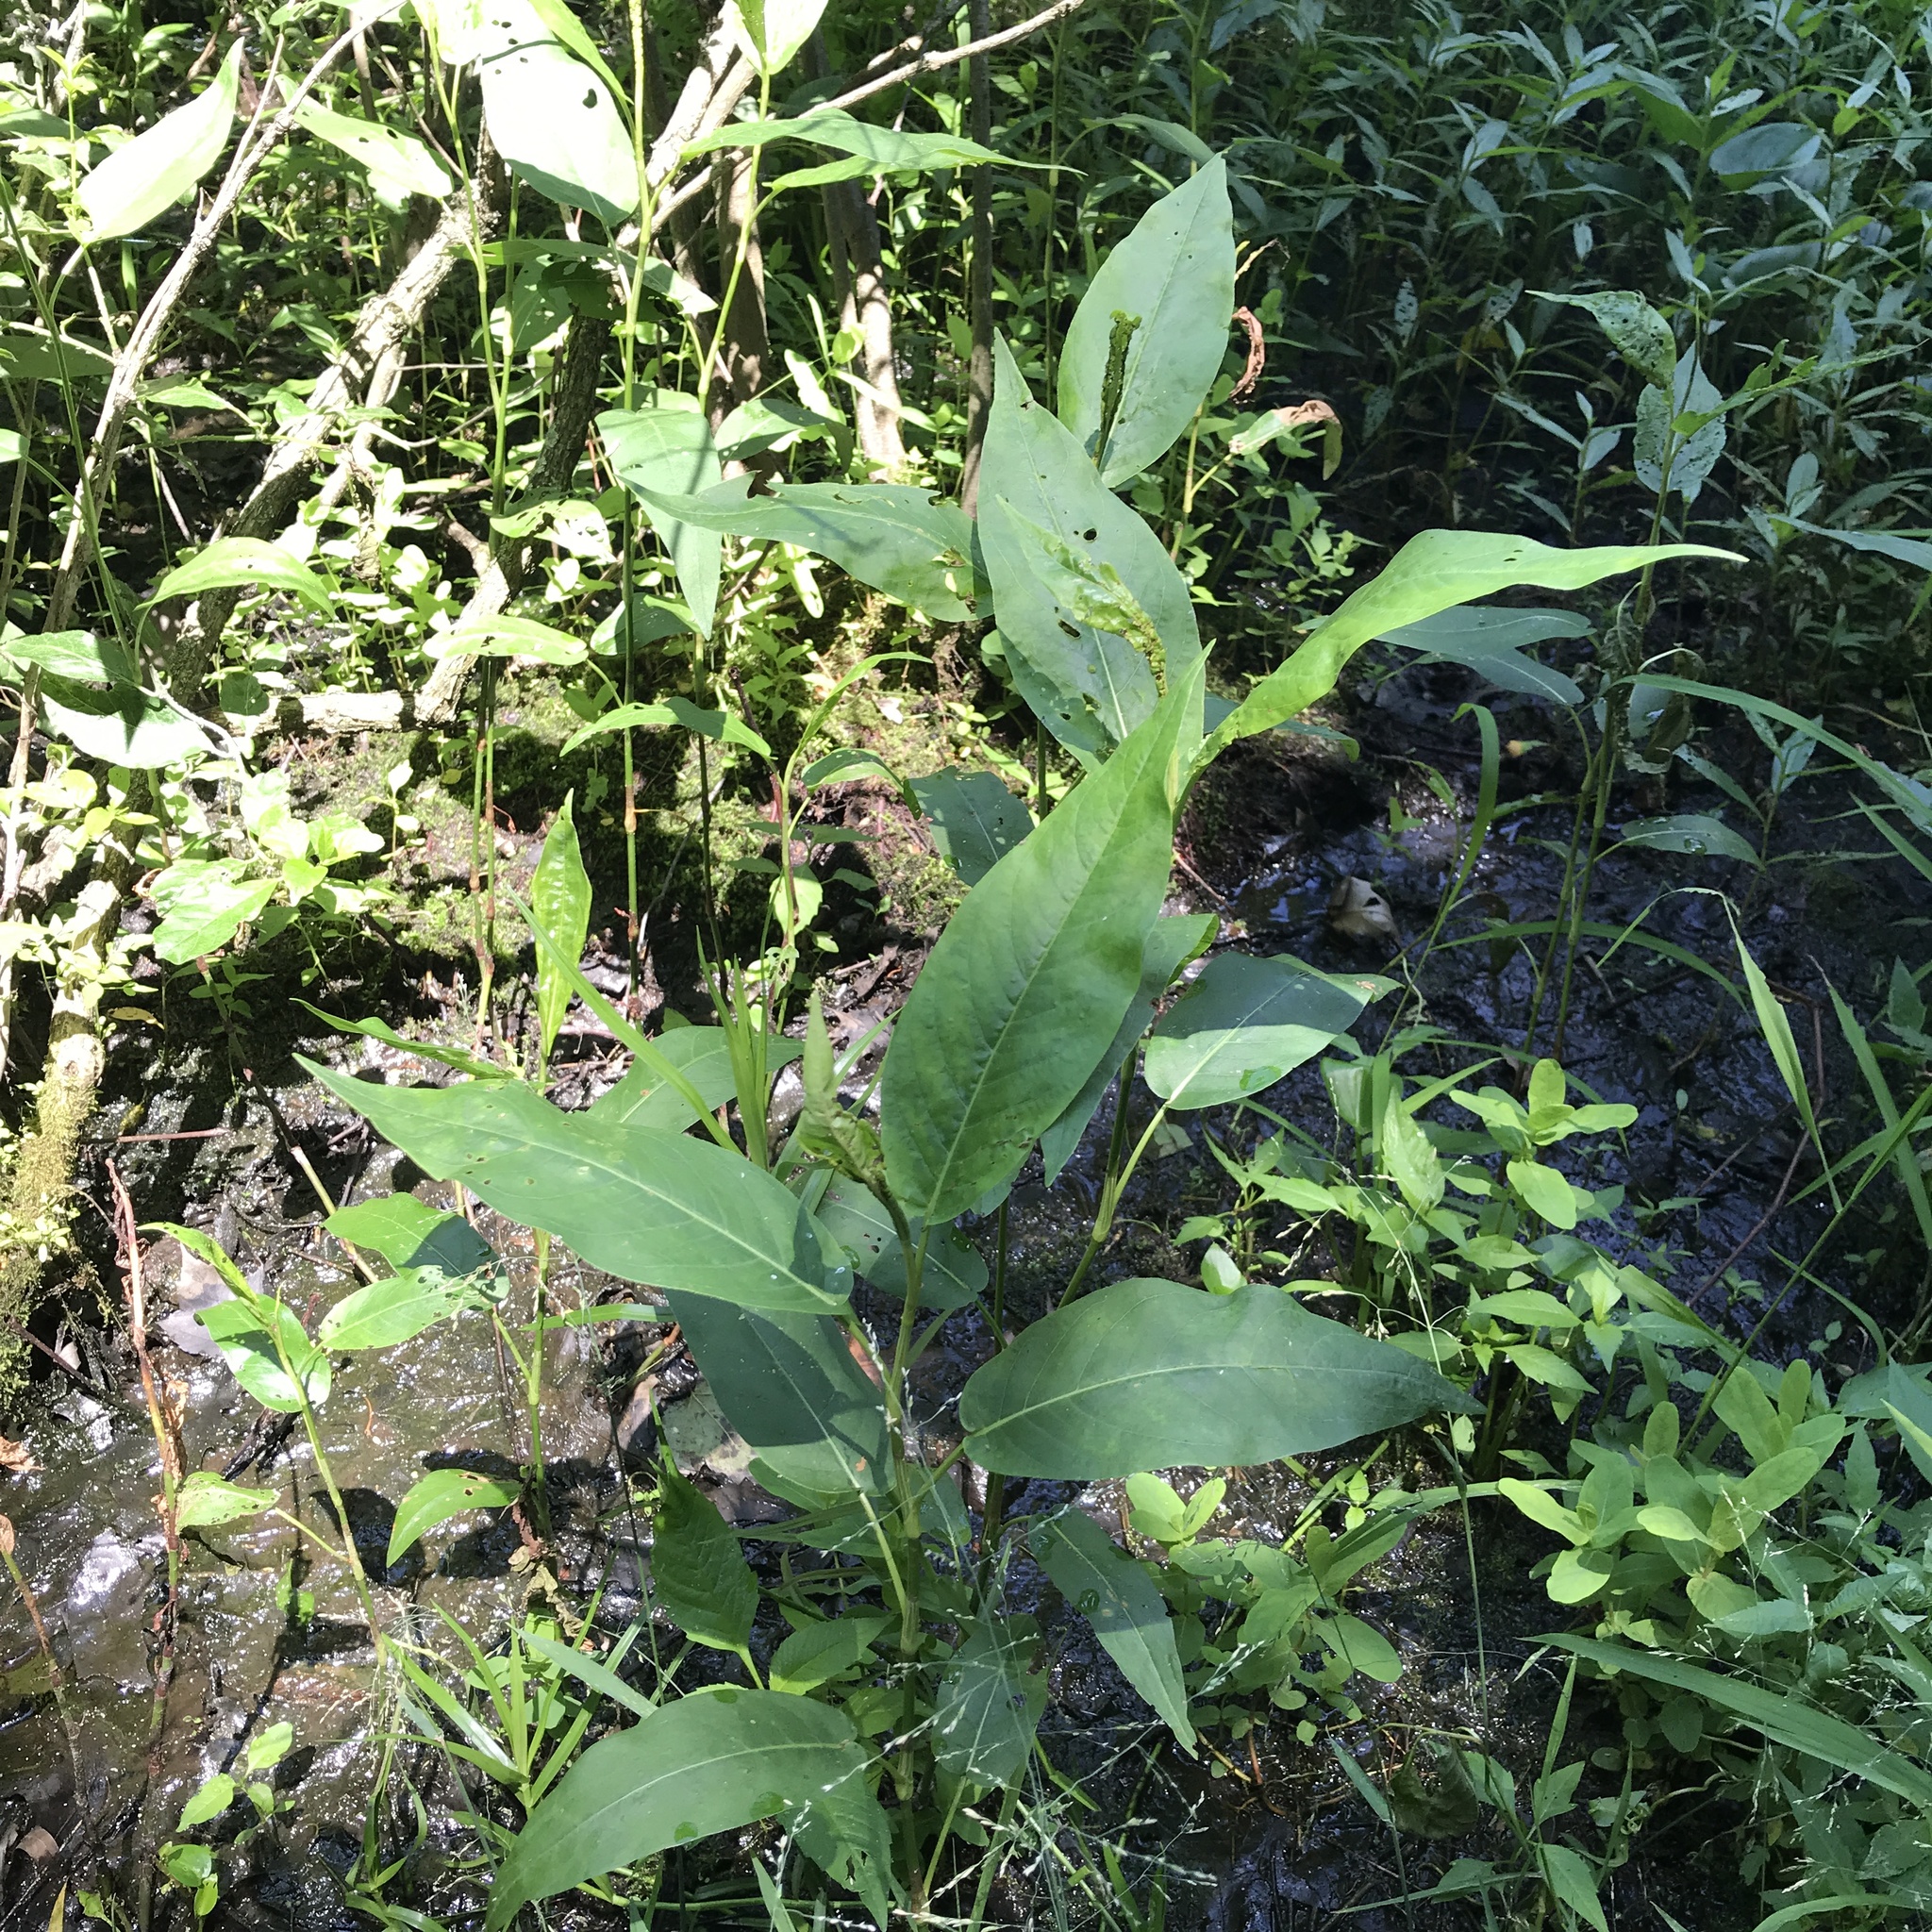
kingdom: Plantae
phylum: Tracheophyta
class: Magnoliopsida
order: Caryophyllales
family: Polygonaceae
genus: Persicaria
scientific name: Persicaria amphibia
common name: Amphibious bistort
